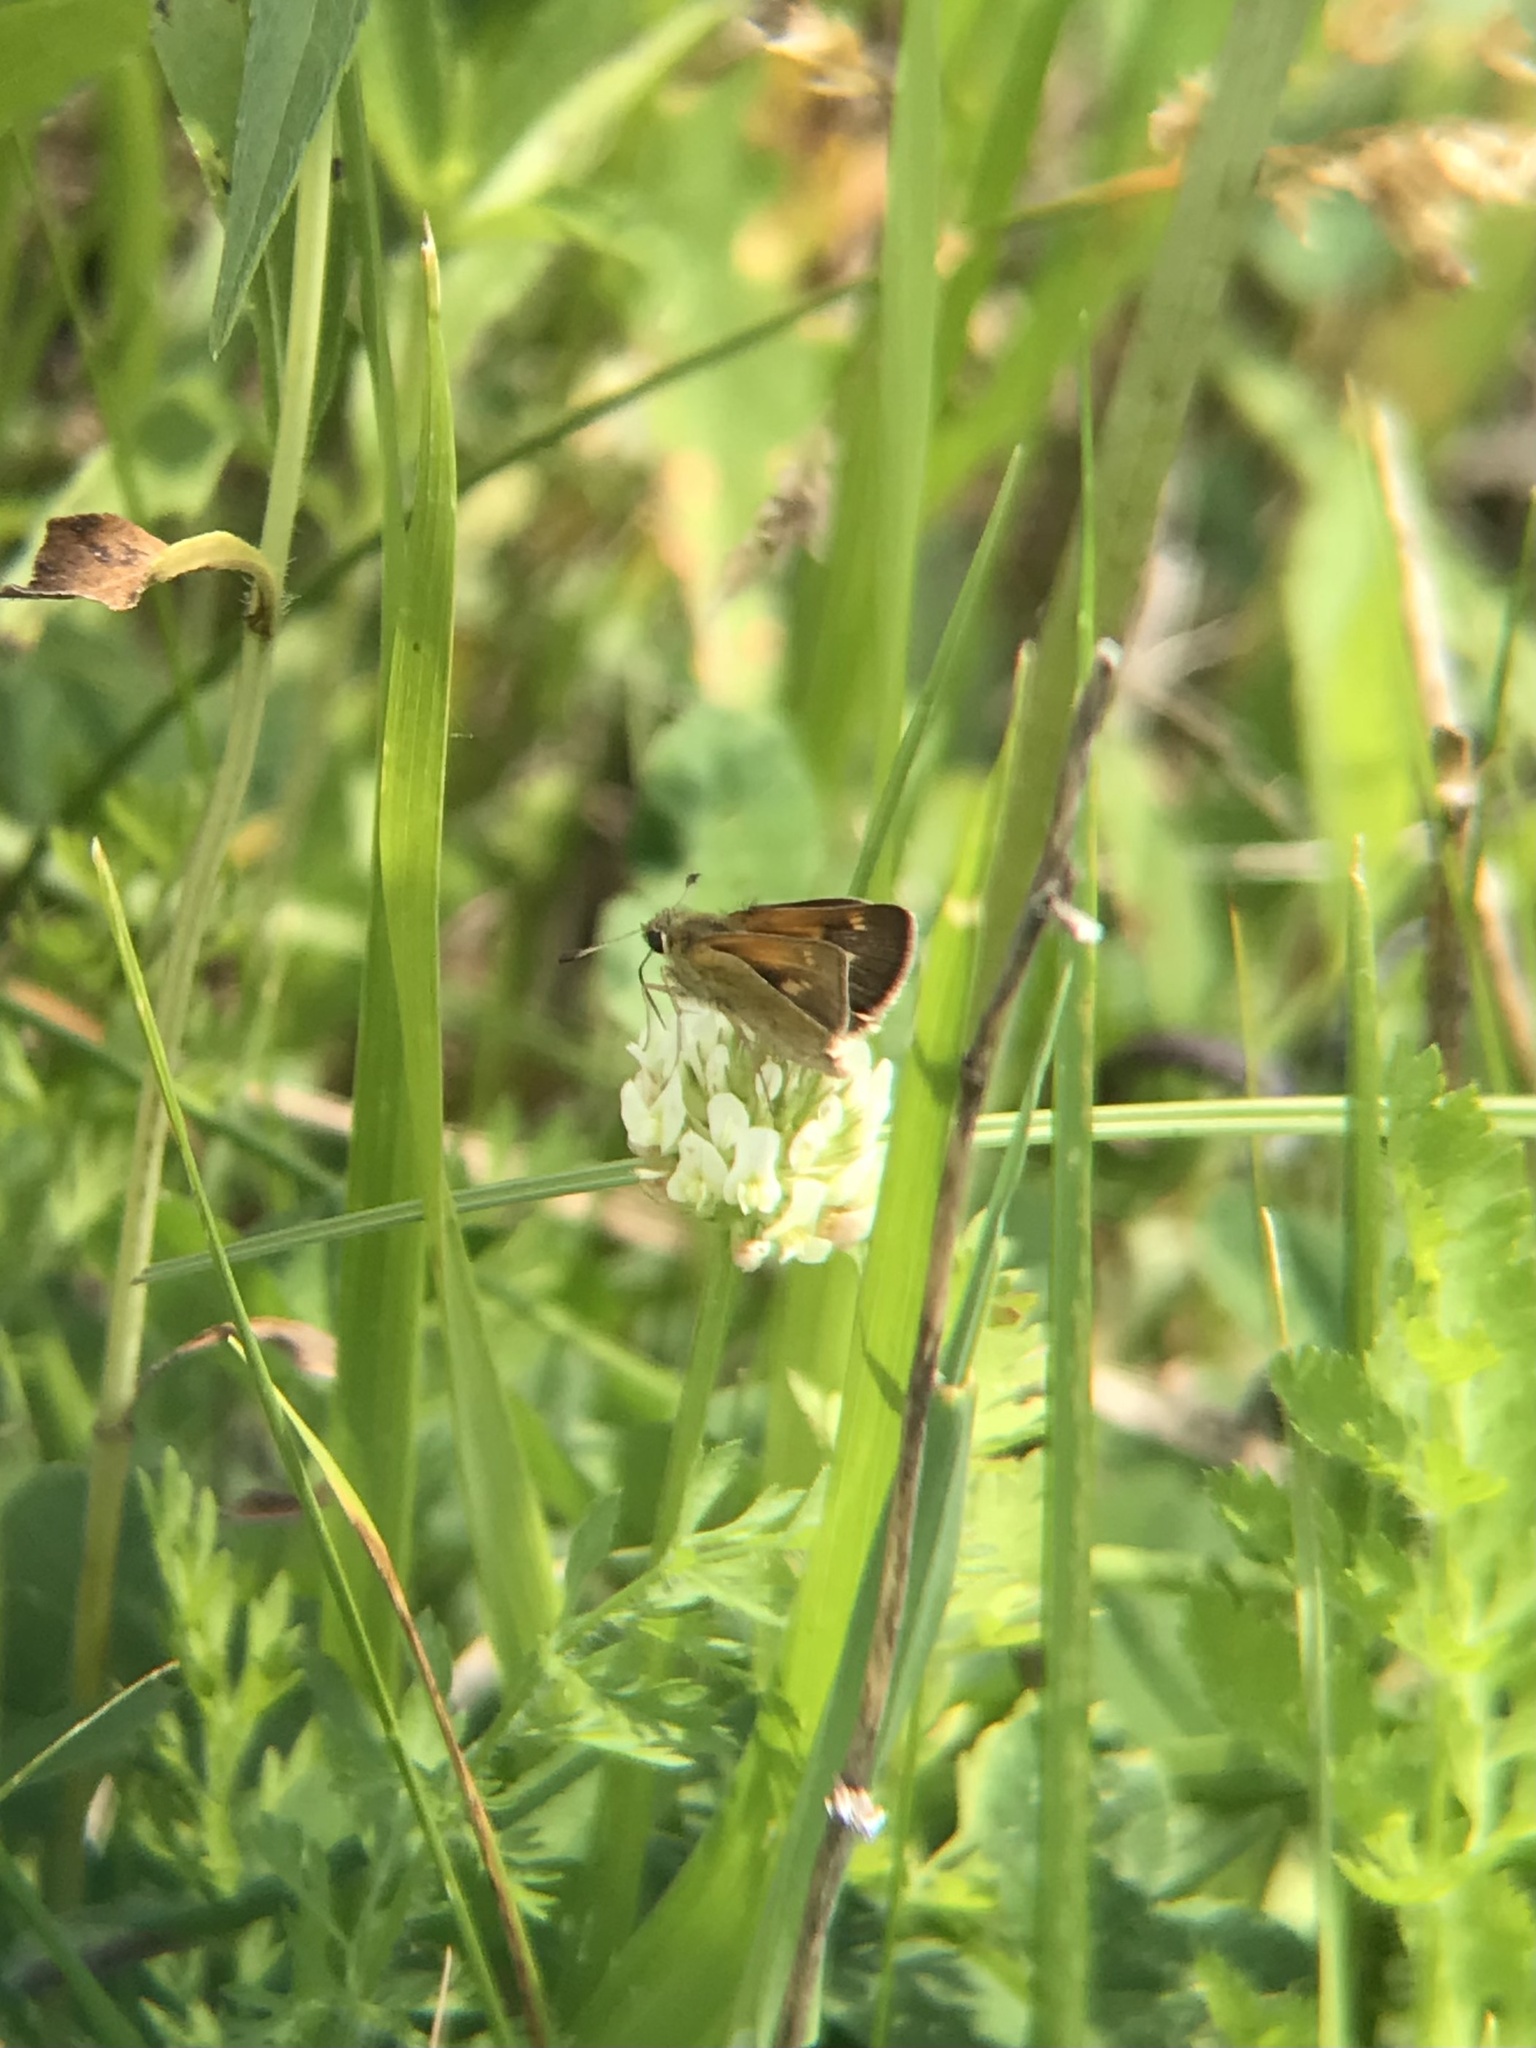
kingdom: Animalia
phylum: Arthropoda
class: Insecta
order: Lepidoptera
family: Hesperiidae
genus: Polites
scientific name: Polites themistocles
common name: Tawny-edged skipper
